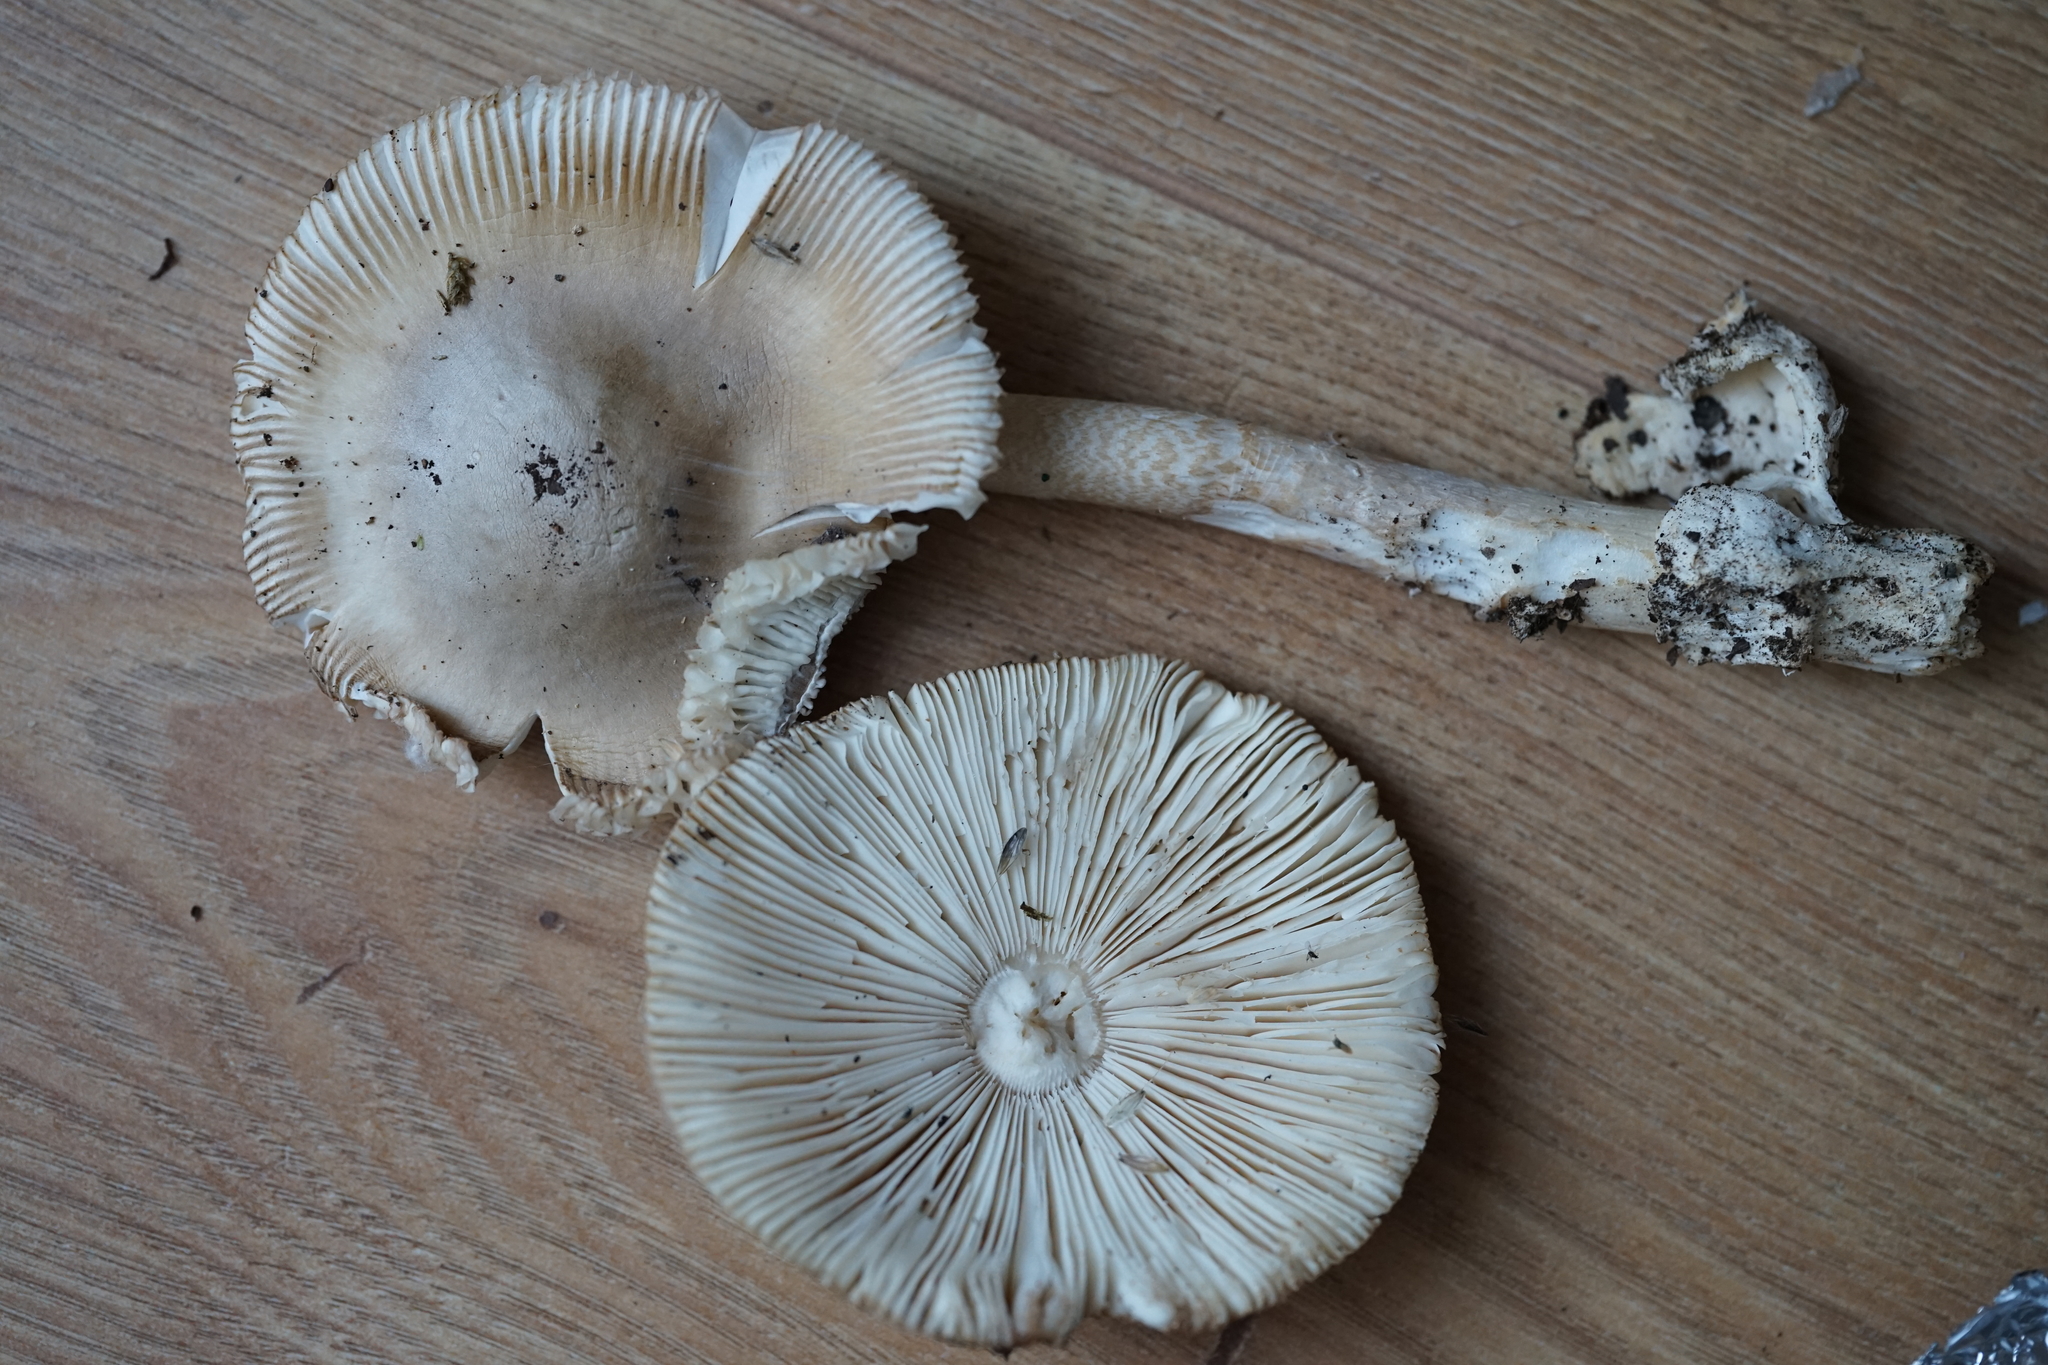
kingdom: Fungi
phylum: Basidiomycota
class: Agaricomycetes
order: Agaricales
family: Amanitaceae
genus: Amanita
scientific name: Amanita lividopallescens
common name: Pale grisette
